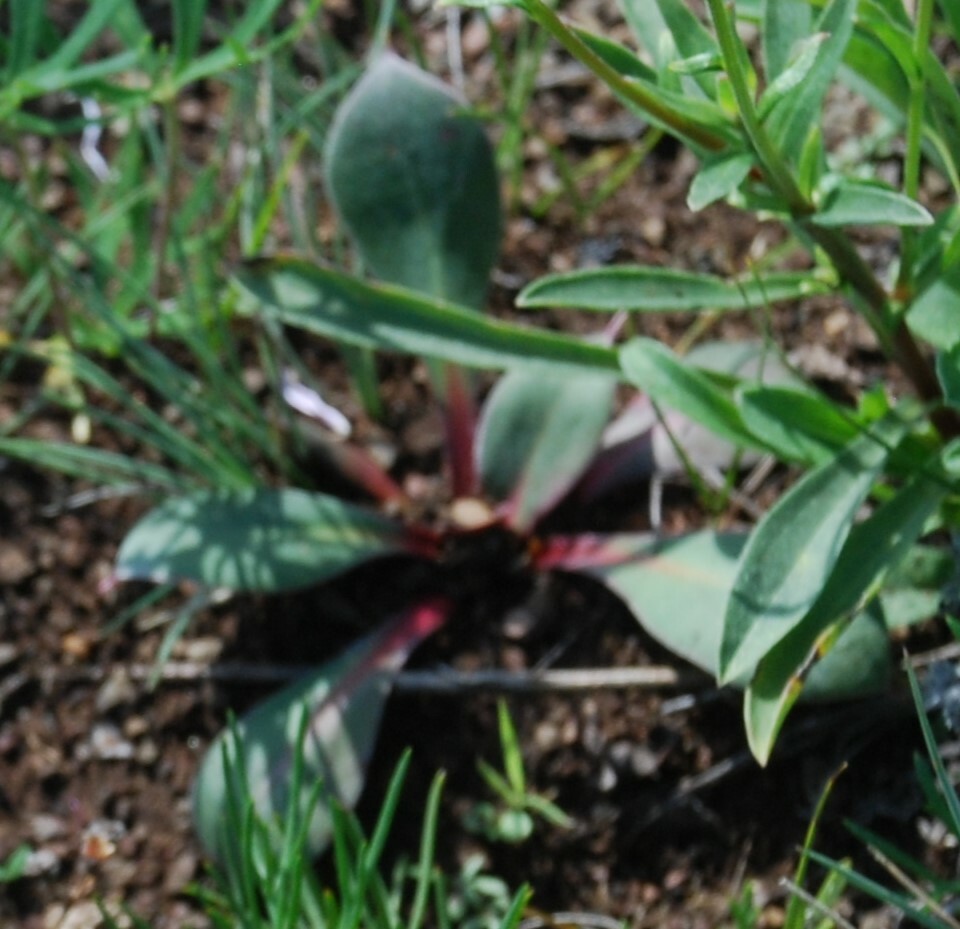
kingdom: Plantae
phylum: Tracheophyta
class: Magnoliopsida
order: Caryophyllales
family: Plumbaginaceae
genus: Goniolimon
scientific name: Goniolimon speciosum
